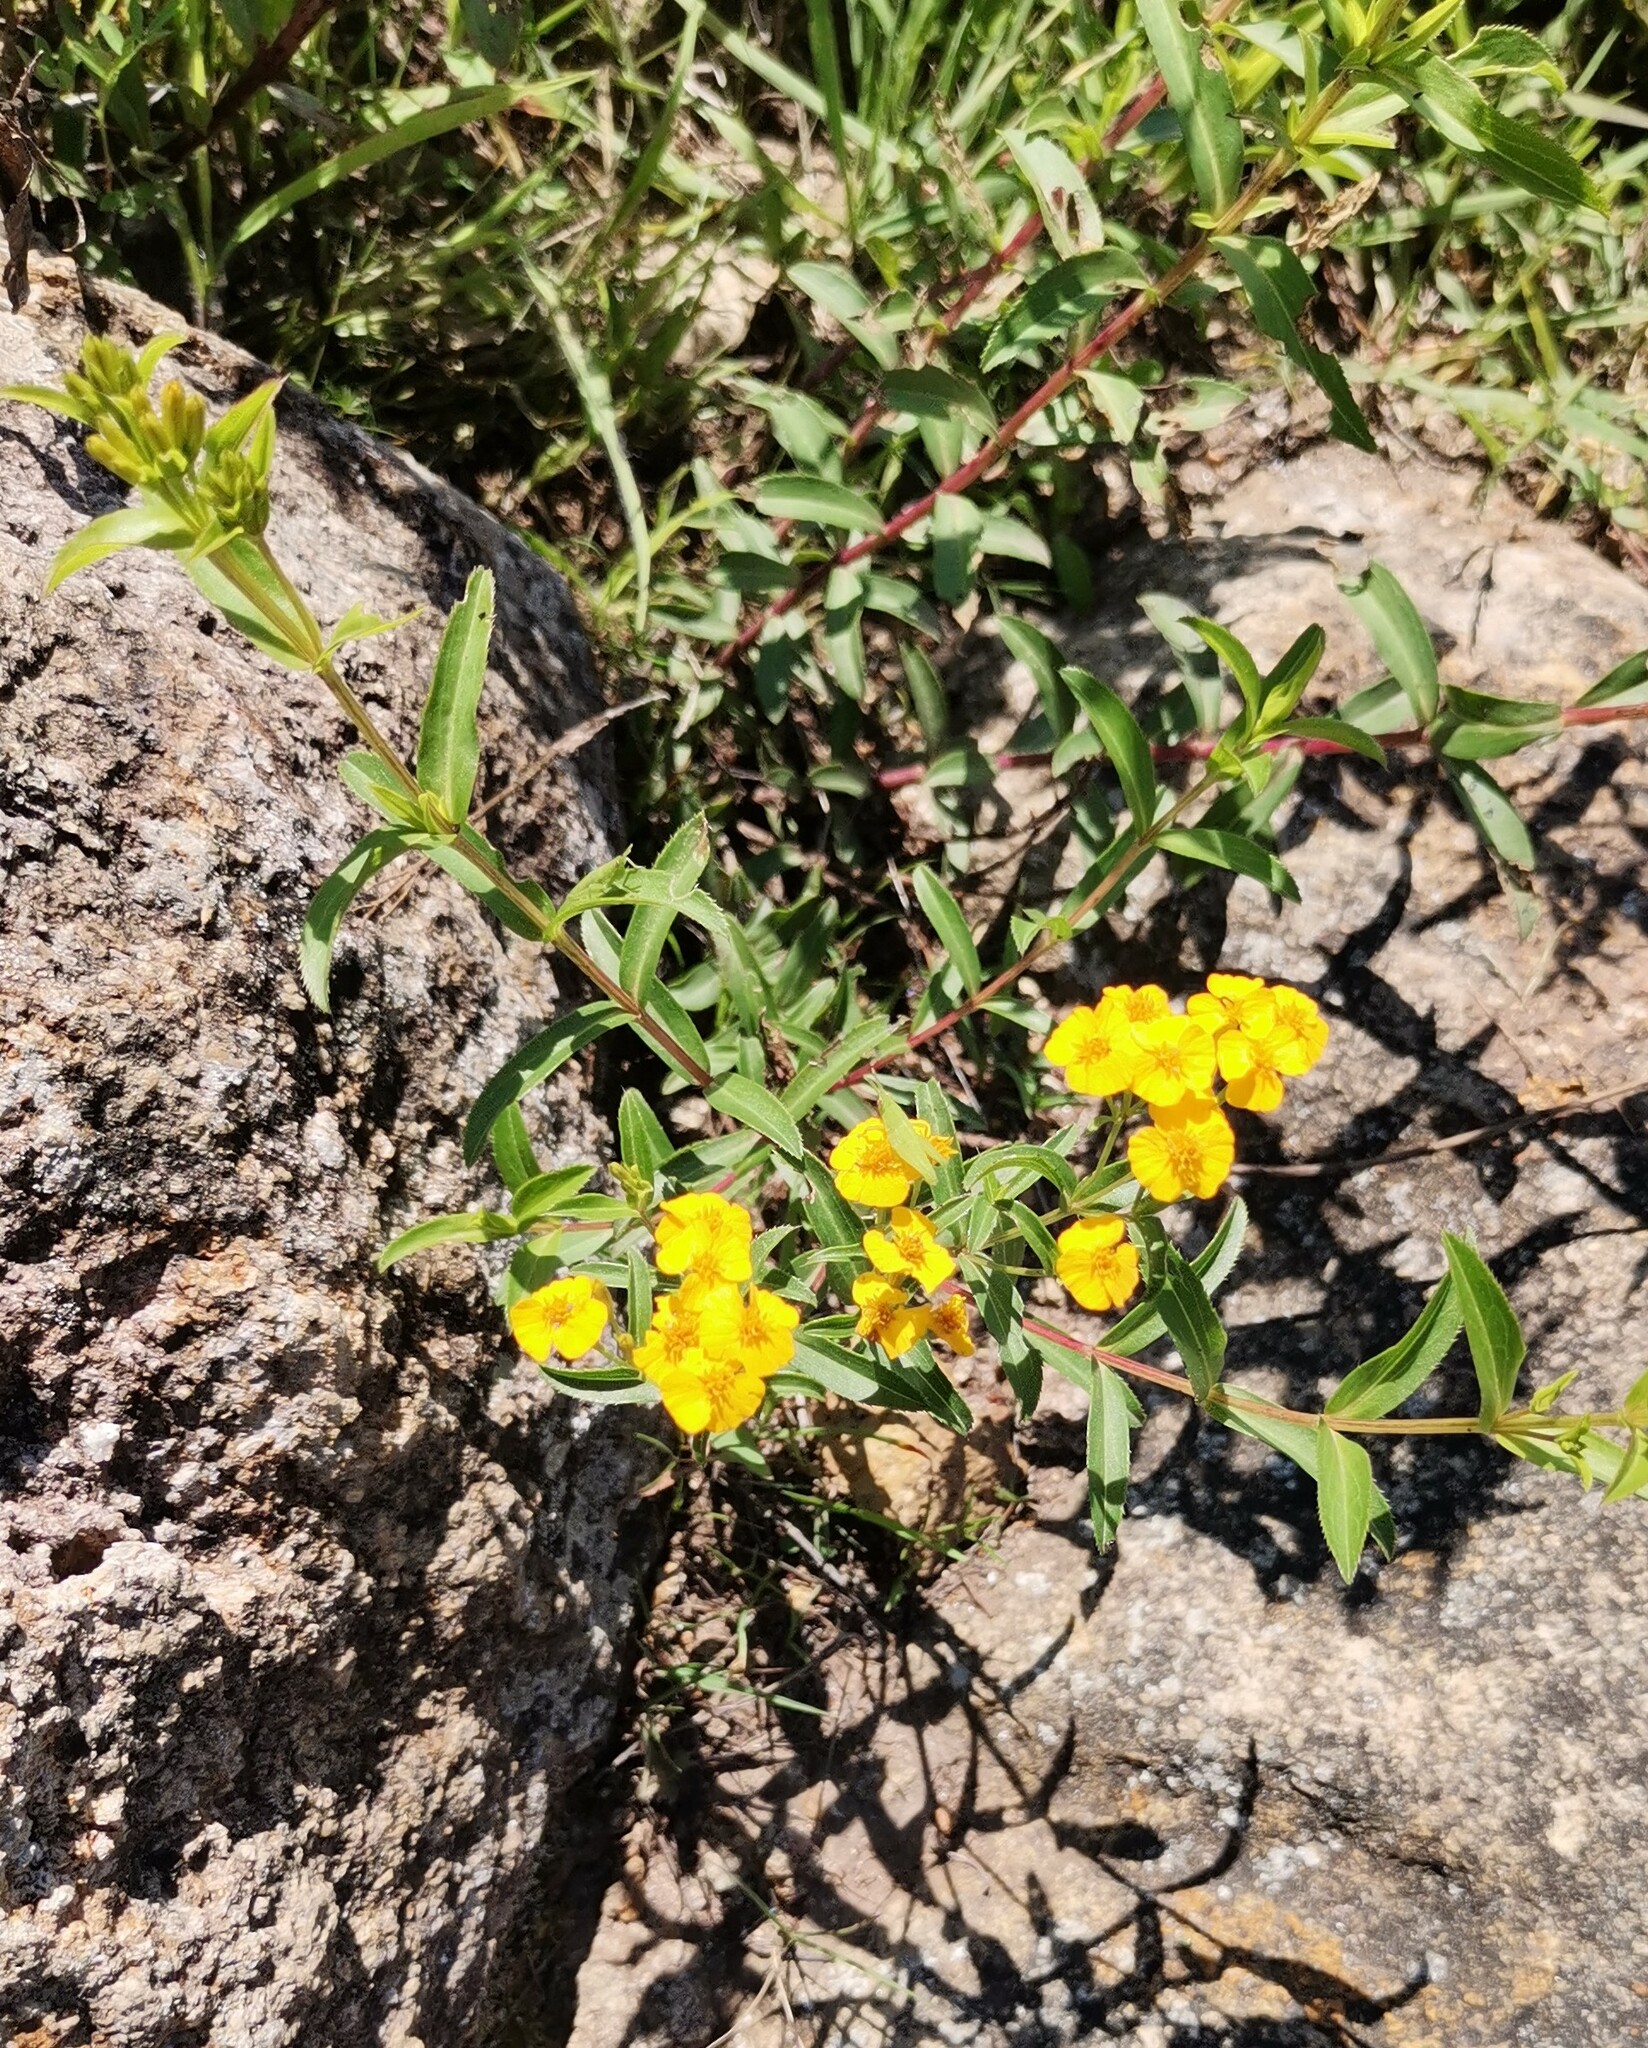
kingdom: Plantae
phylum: Tracheophyta
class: Magnoliopsida
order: Asterales
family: Asteraceae
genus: Tagetes
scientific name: Tagetes lucida
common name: Sweetscented marigold
